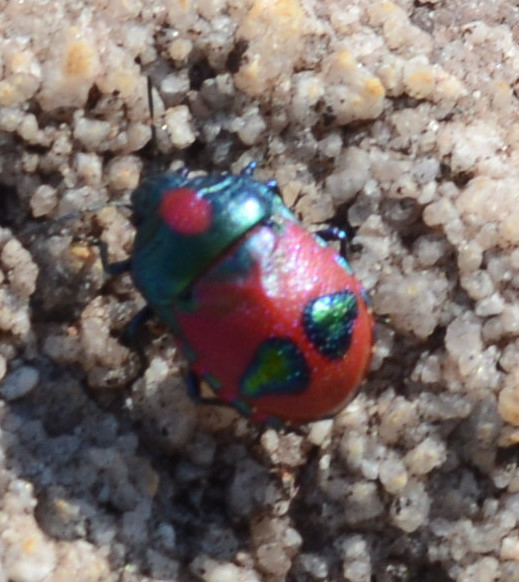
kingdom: Animalia
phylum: Arthropoda
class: Insecta
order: Hemiptera
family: Scutelleridae
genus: Choerocoris
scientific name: Choerocoris paganus
